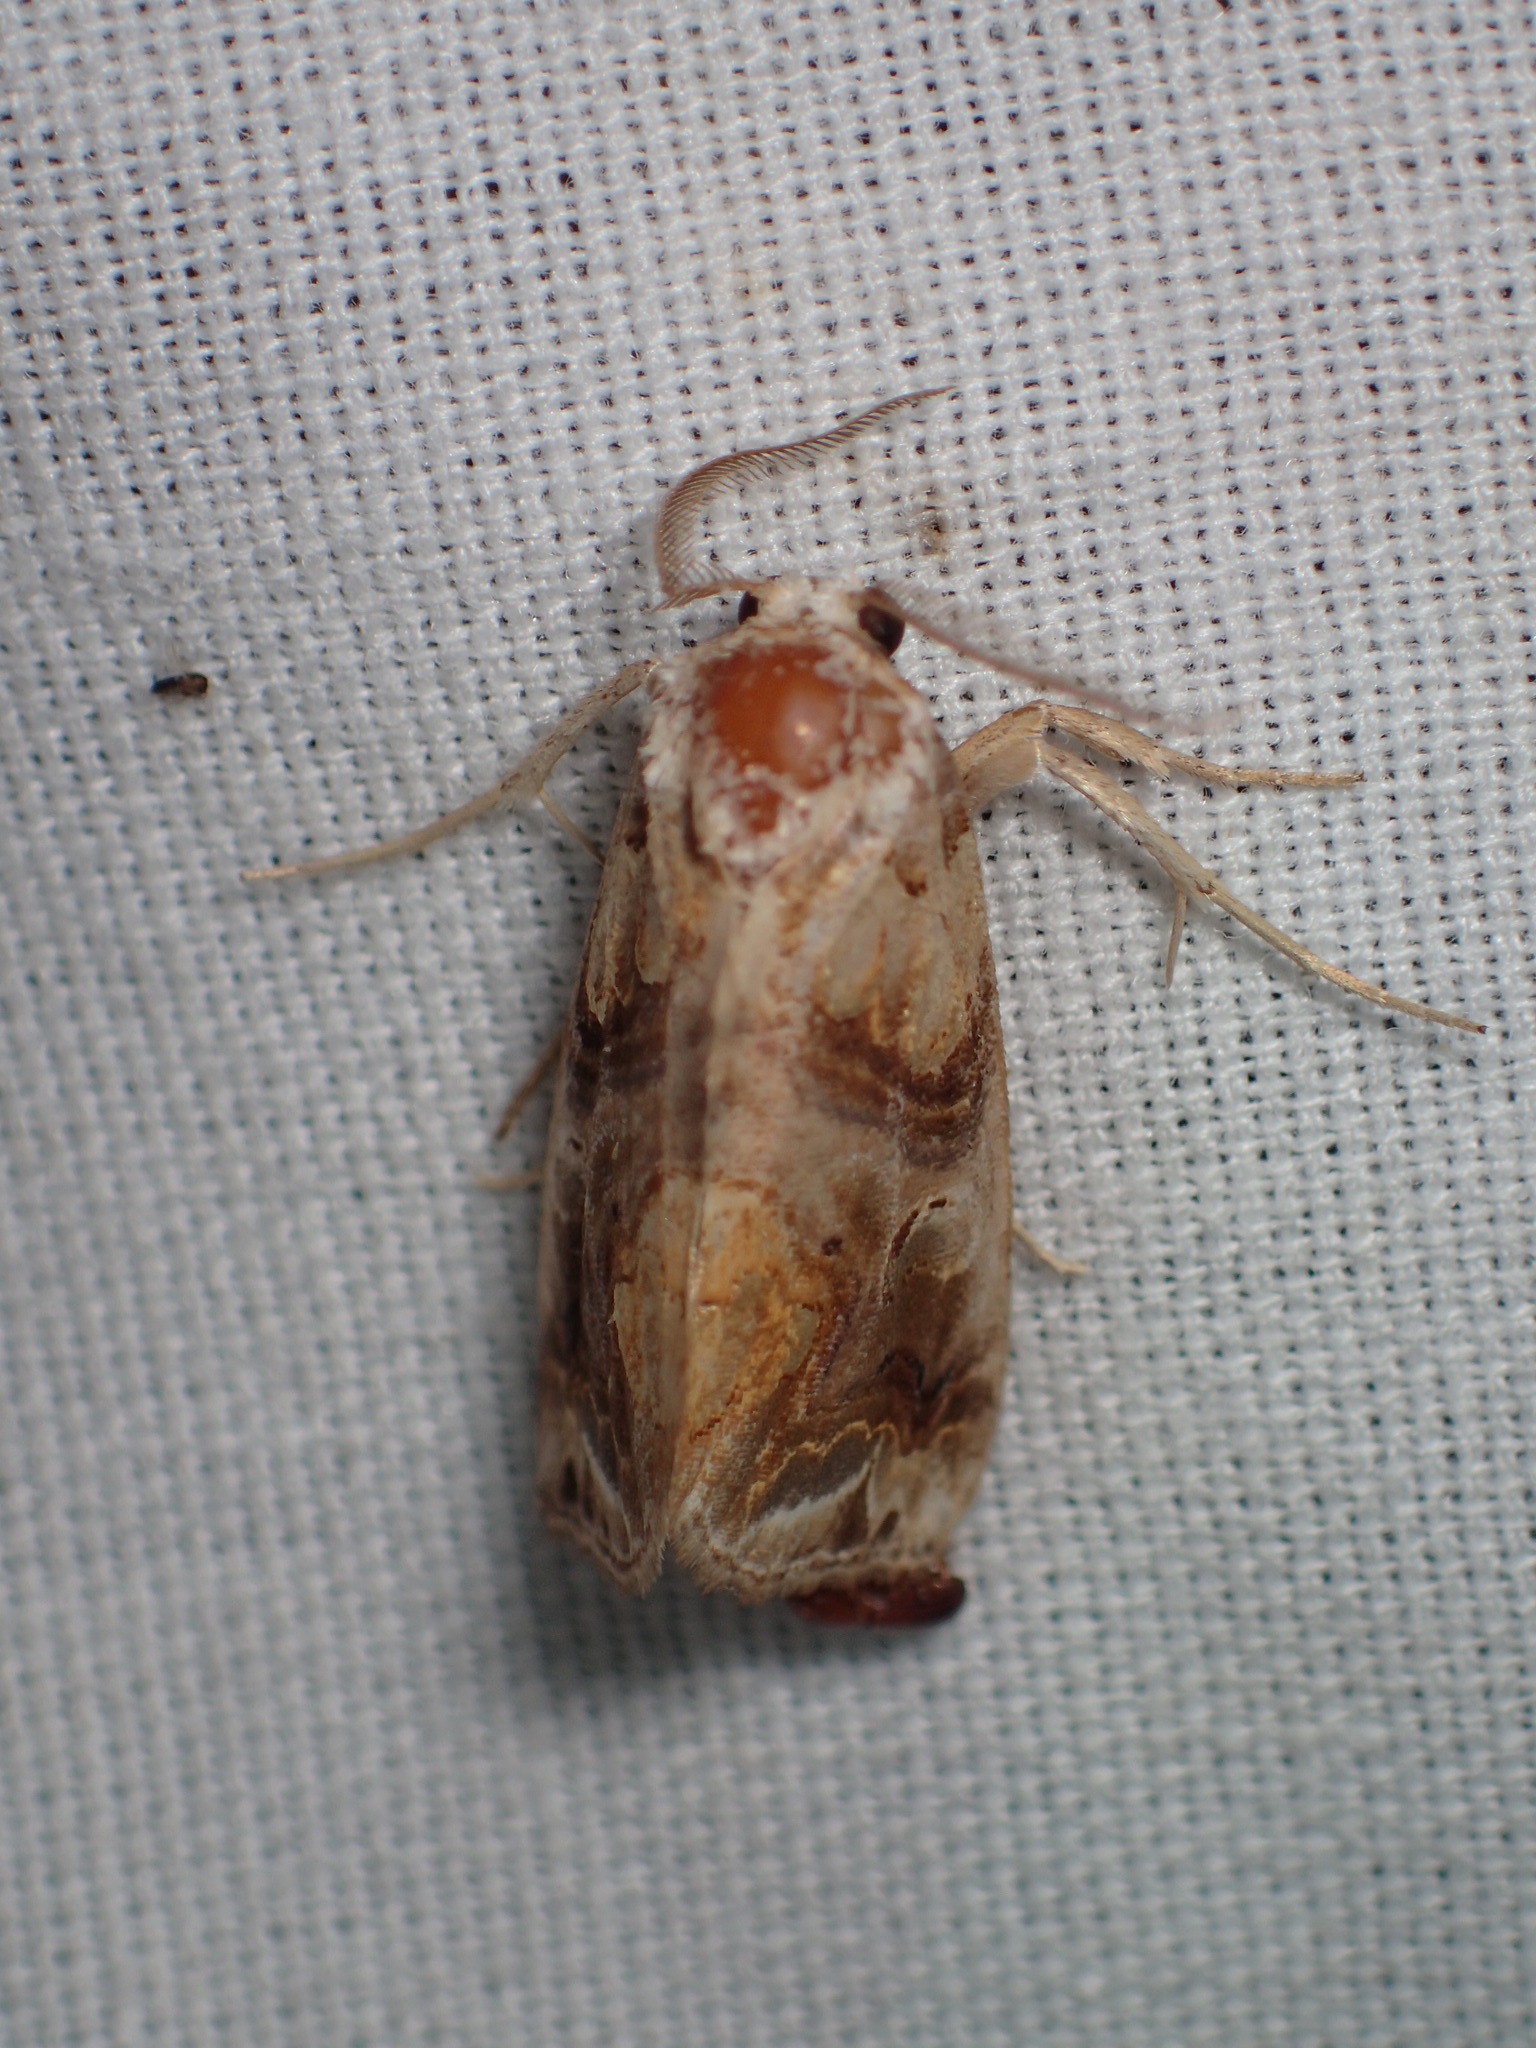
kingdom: Animalia
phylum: Arthropoda
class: Insecta
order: Lepidoptera
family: Erebidae
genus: Plusiodonta
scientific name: Plusiodonta compressipalpis
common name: Moonseed moth
